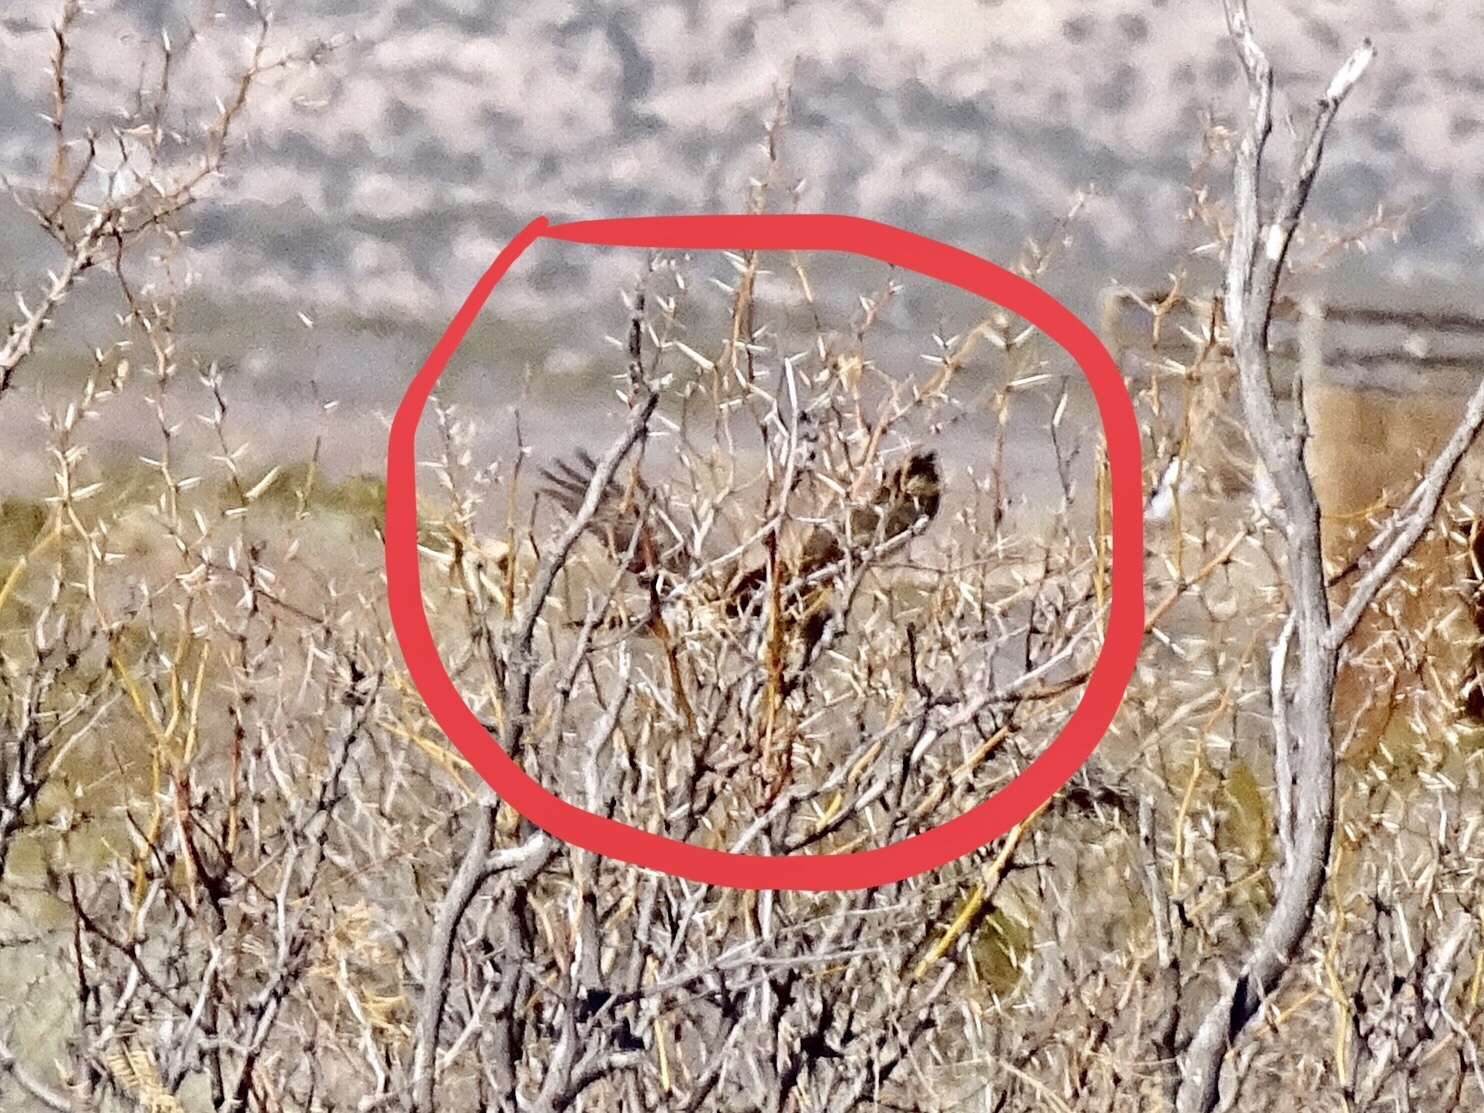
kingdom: Animalia
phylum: Chordata
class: Aves
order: Accipitriformes
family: Accipitridae
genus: Circus
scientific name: Circus cyaneus
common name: Hen harrier
